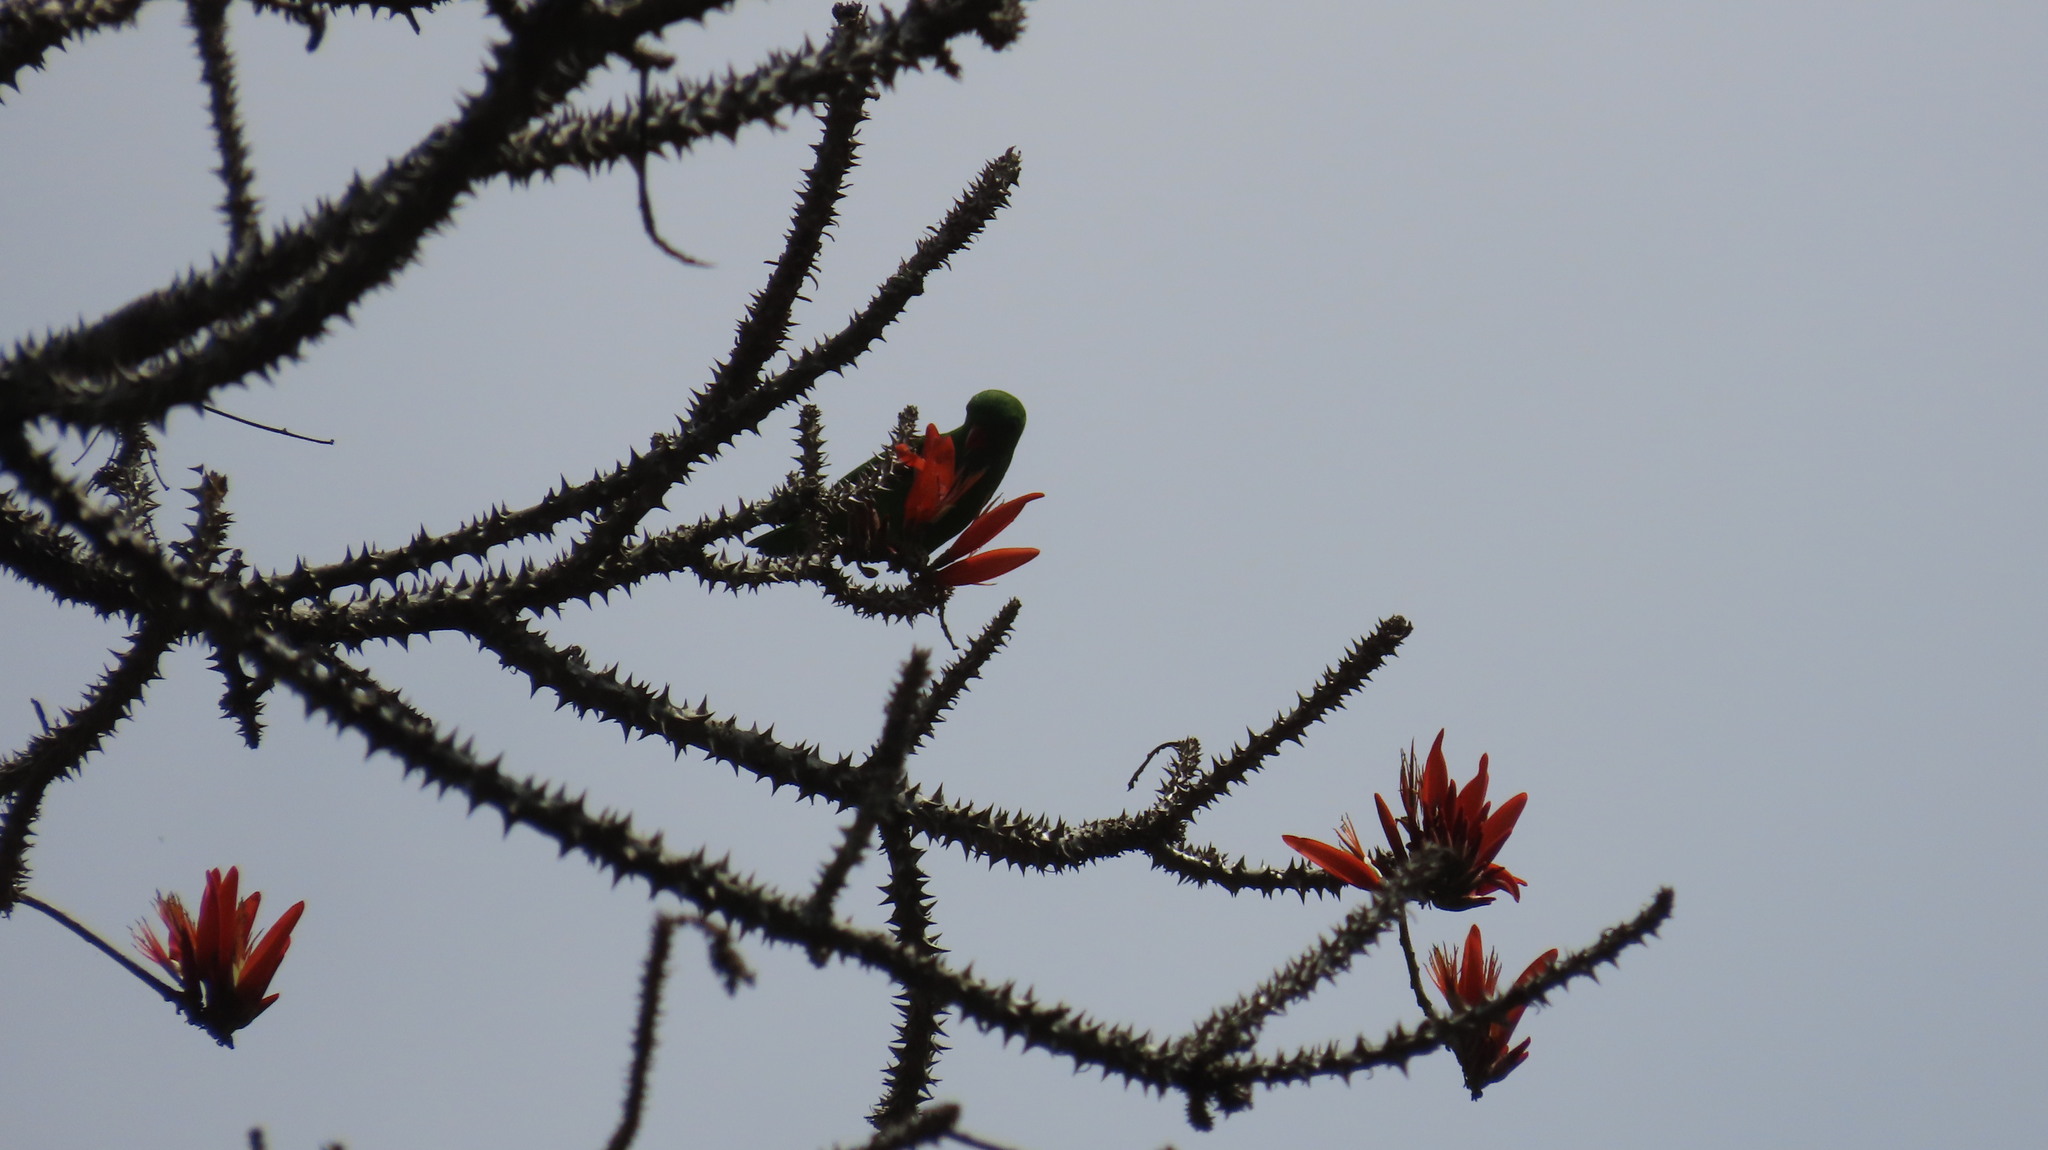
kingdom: Animalia
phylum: Chordata
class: Aves
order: Psittaciformes
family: Psittacidae
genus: Loriculus
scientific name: Loriculus vernalis
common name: Vernal hanging parrot
